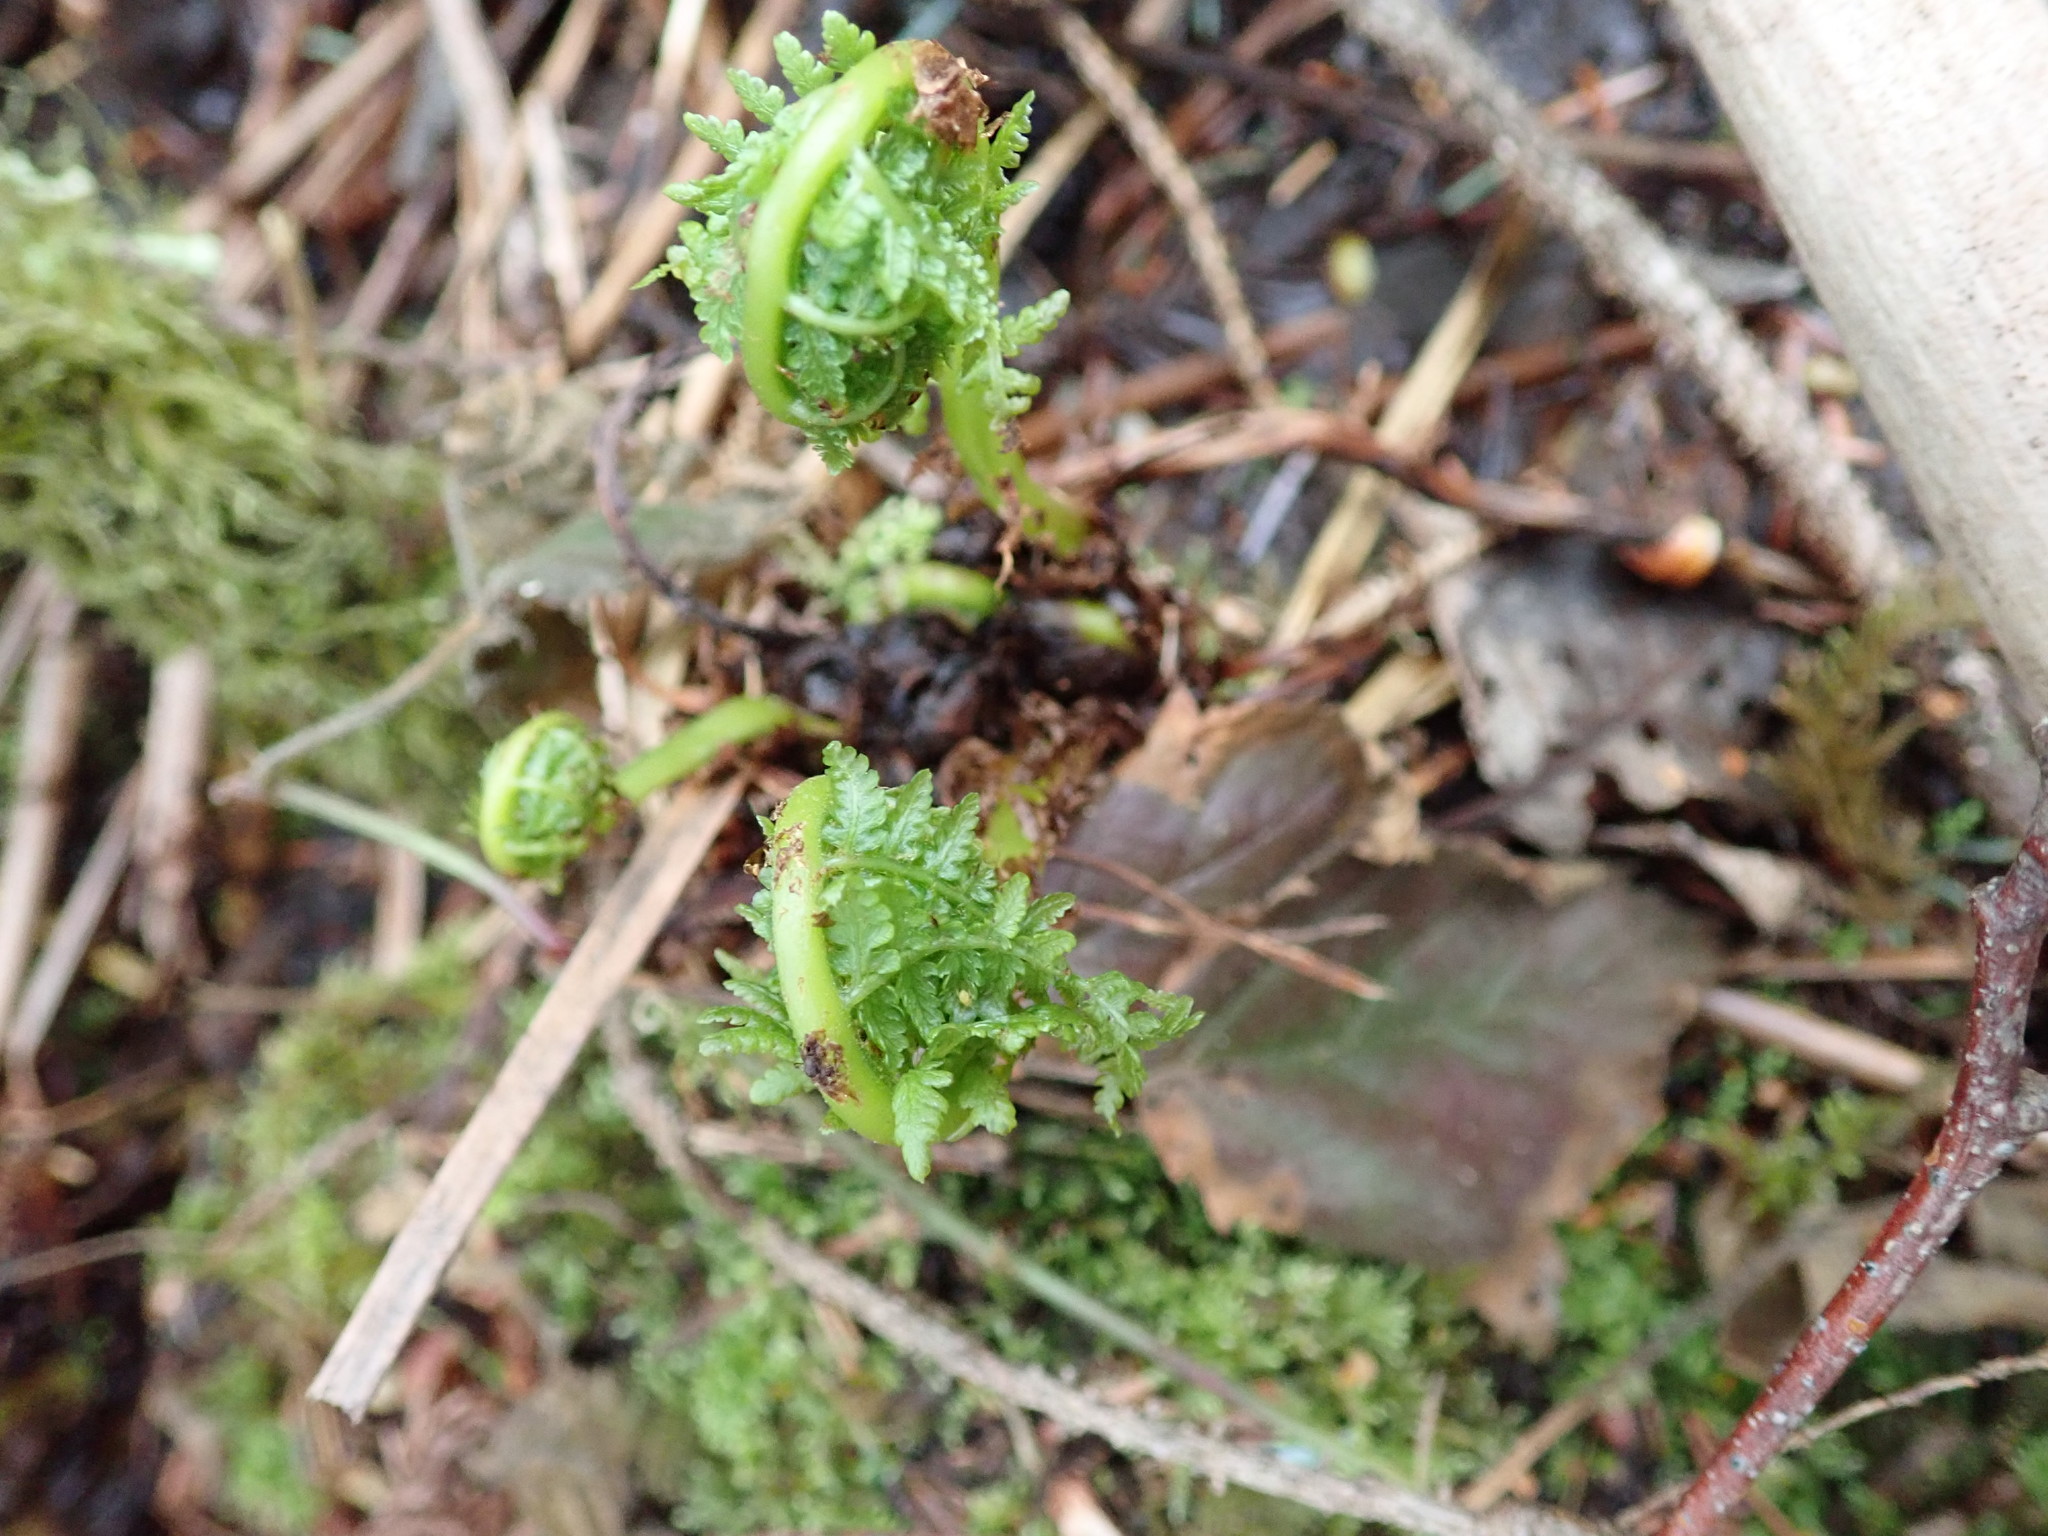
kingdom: Plantae
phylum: Tracheophyta
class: Polypodiopsida
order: Polypodiales
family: Athyriaceae
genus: Athyrium
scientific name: Athyrium filix-femina
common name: Lady fern
